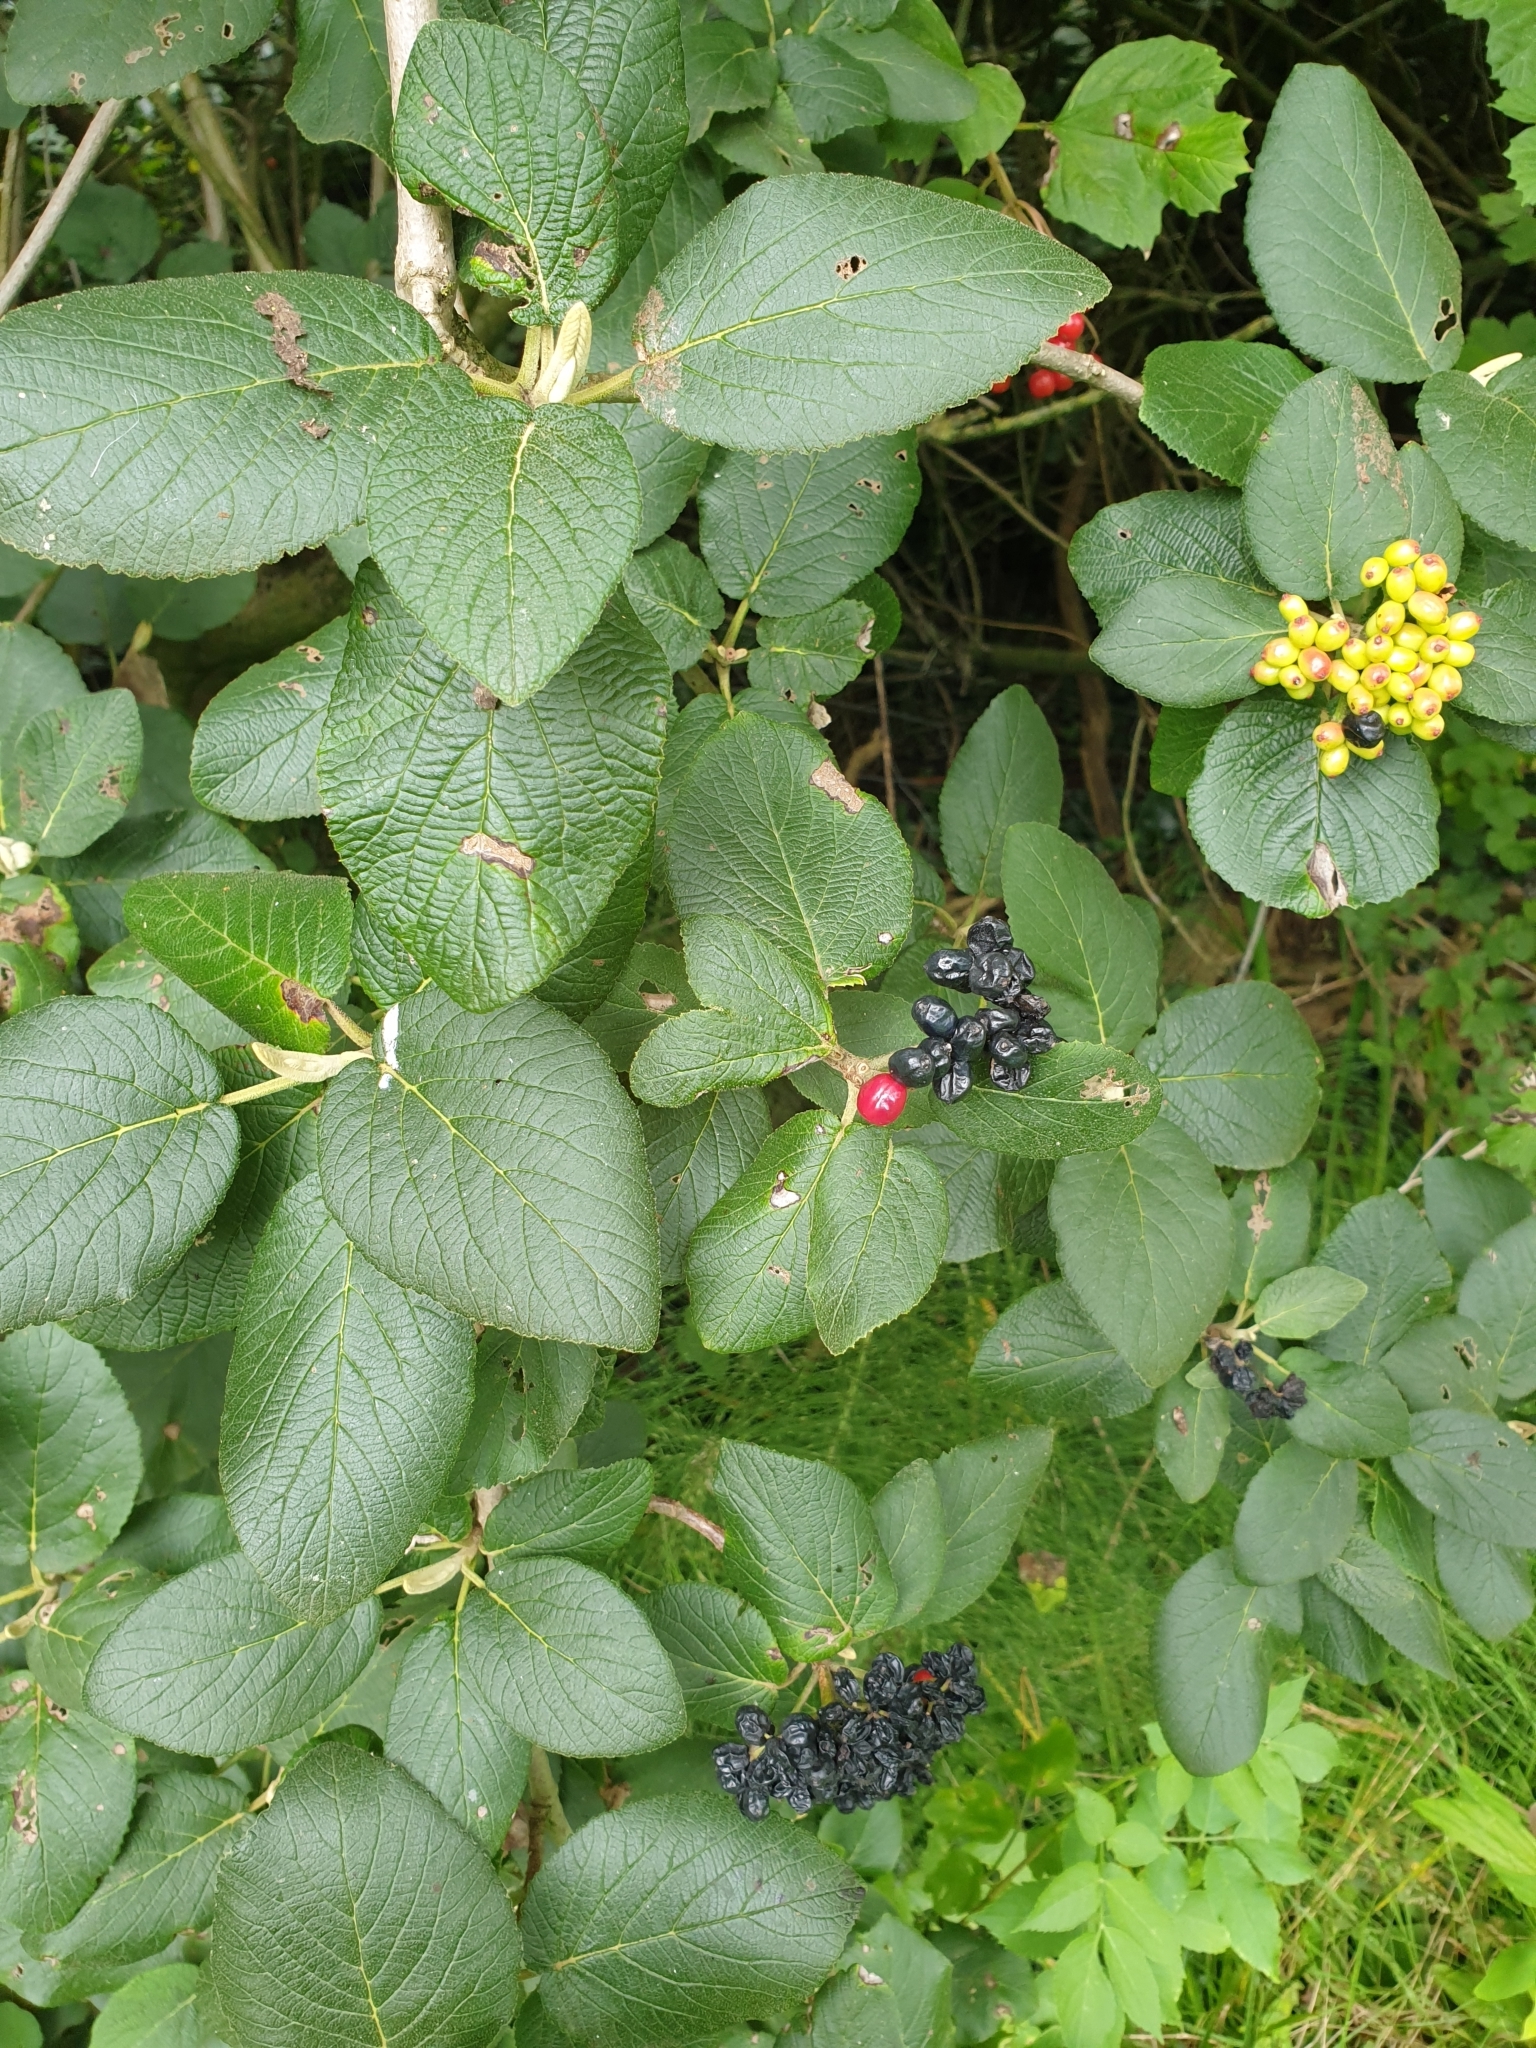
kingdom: Plantae
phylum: Tracheophyta
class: Magnoliopsida
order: Dipsacales
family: Viburnaceae
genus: Viburnum
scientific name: Viburnum lantana
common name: Wayfaring tree
